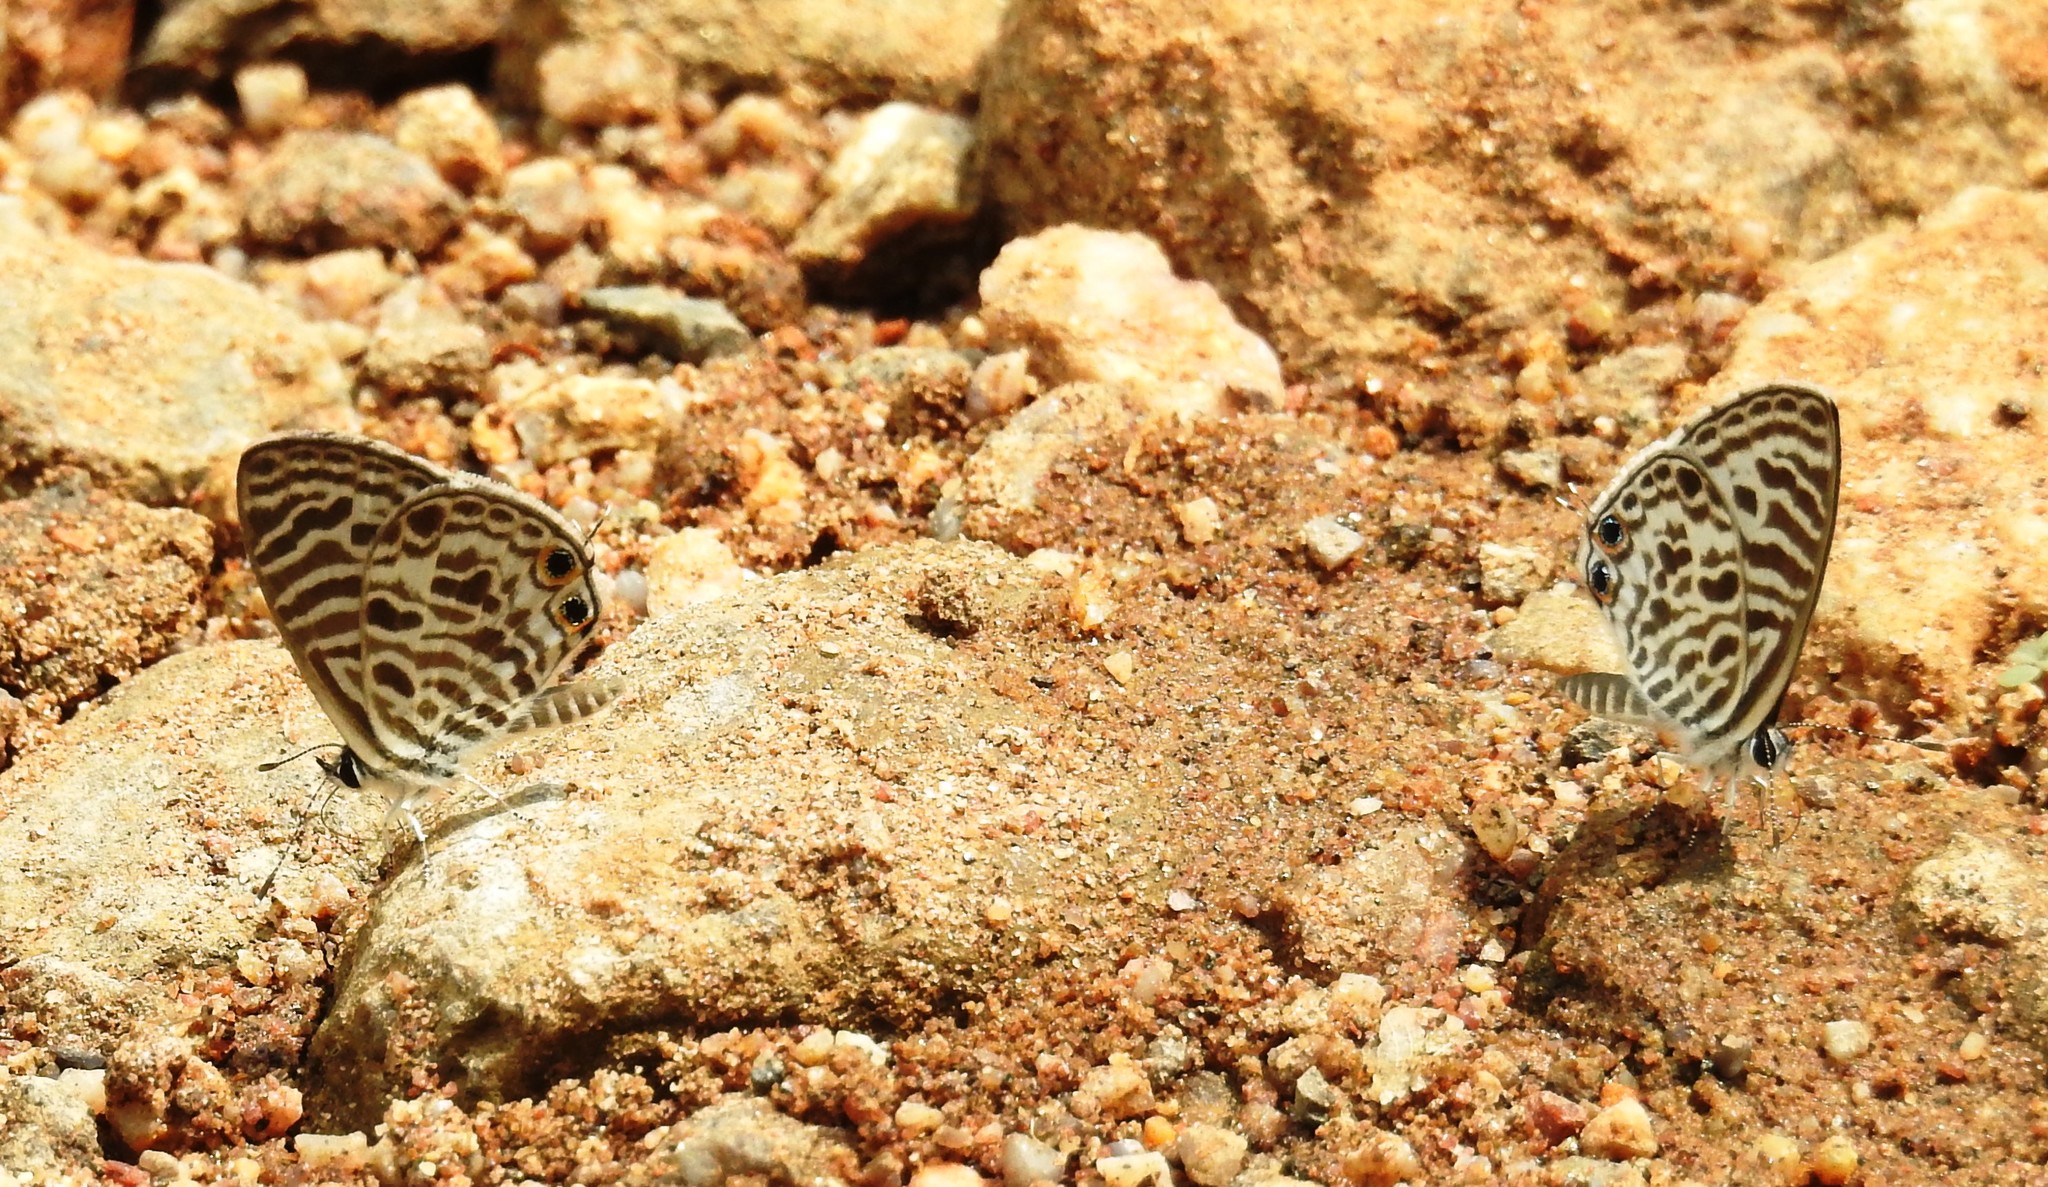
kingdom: Animalia
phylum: Arthropoda
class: Insecta
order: Lepidoptera
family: Lycaenidae
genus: Leptotes
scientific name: Leptotes plinius
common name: Zebra blue
